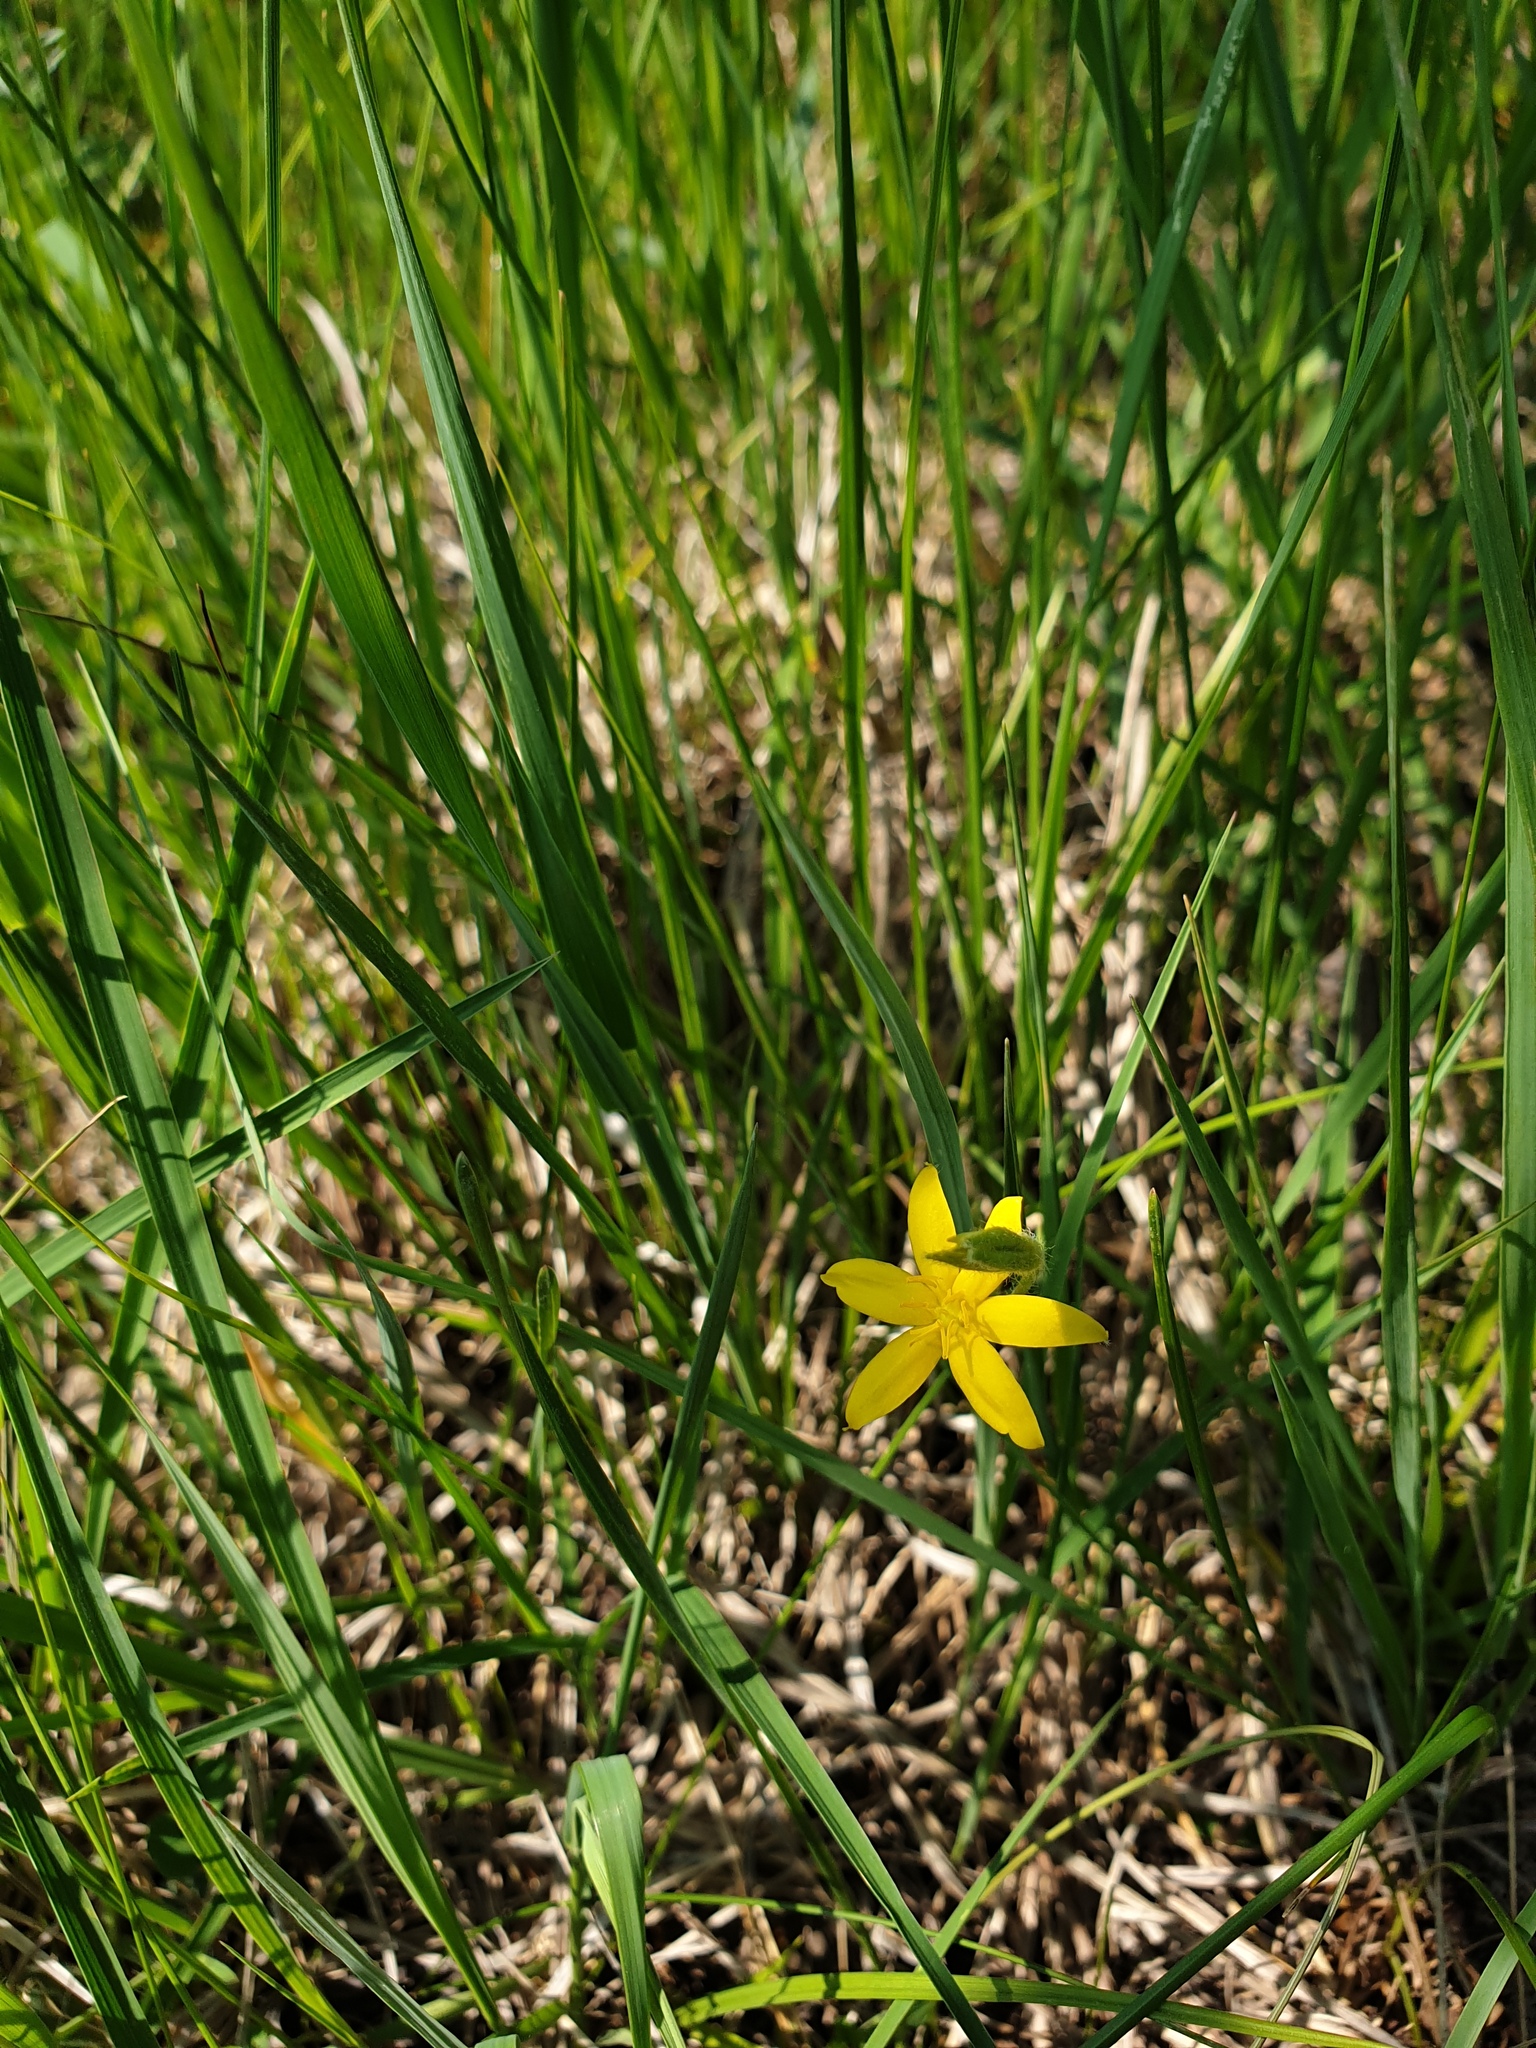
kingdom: Plantae
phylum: Tracheophyta
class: Liliopsida
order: Asparagales
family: Hypoxidaceae
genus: Hypoxis
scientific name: Hypoxis hirsuta
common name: Common goldstar
